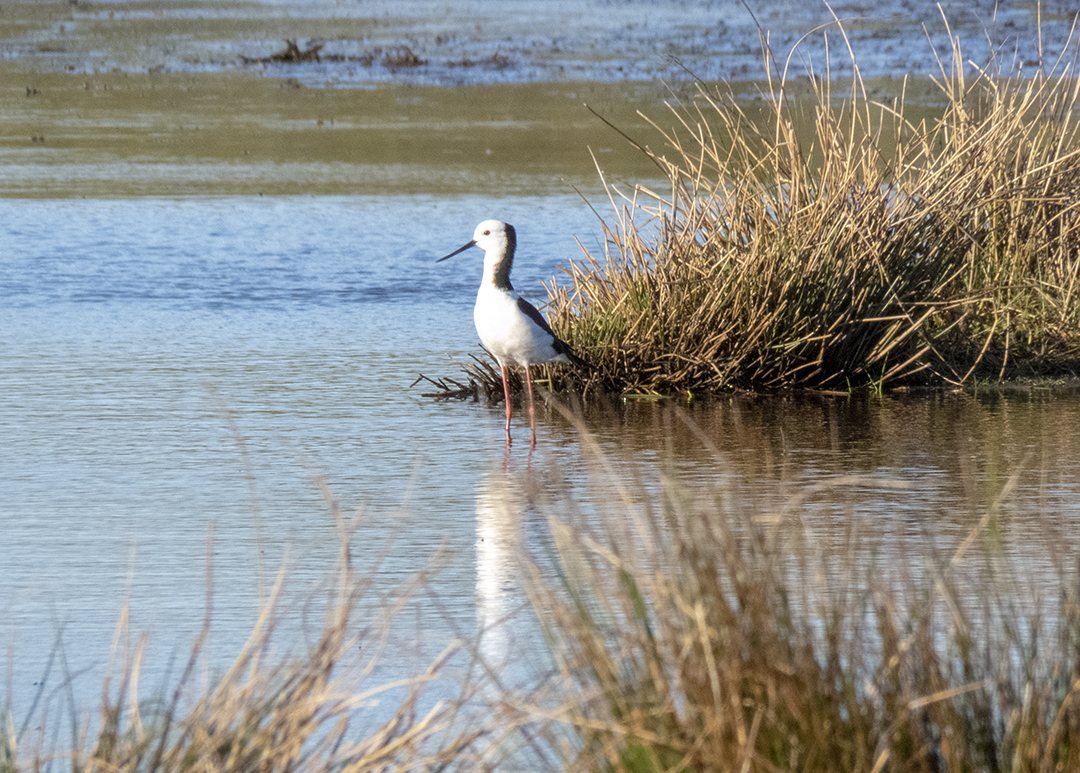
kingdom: Animalia
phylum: Chordata
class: Aves
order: Charadriiformes
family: Recurvirostridae
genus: Himantopus
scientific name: Himantopus leucocephalus
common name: White-headed stilt
